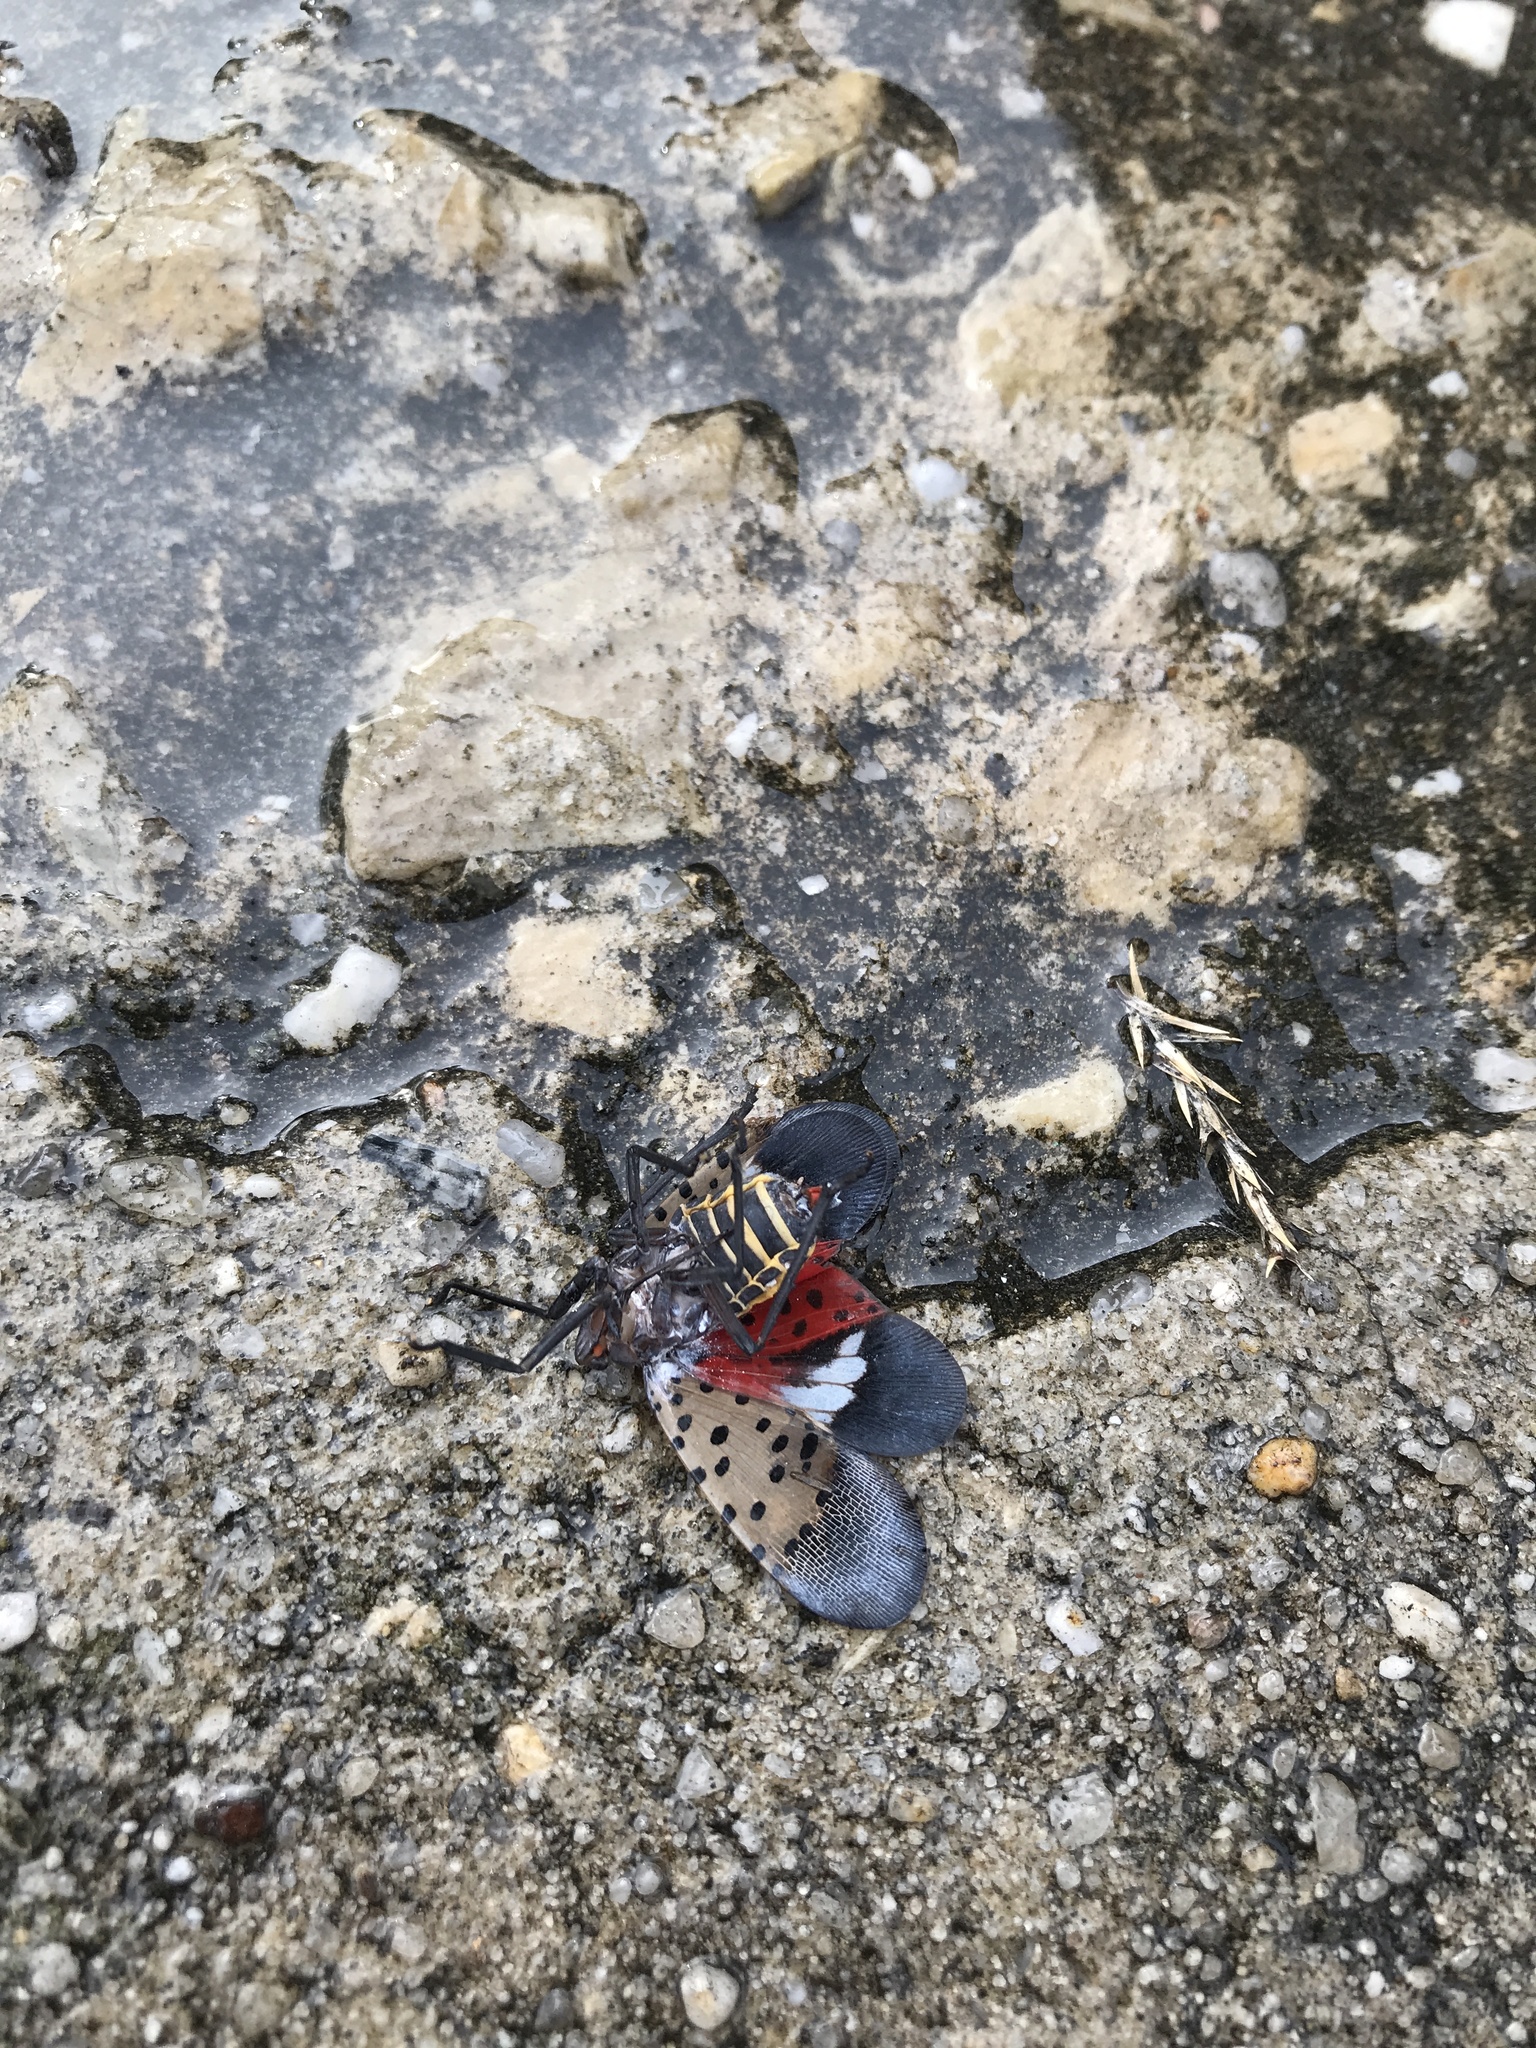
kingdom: Animalia
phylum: Arthropoda
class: Insecta
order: Hemiptera
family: Fulgoridae
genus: Lycorma
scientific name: Lycorma delicatula
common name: Spotted lanternfly
